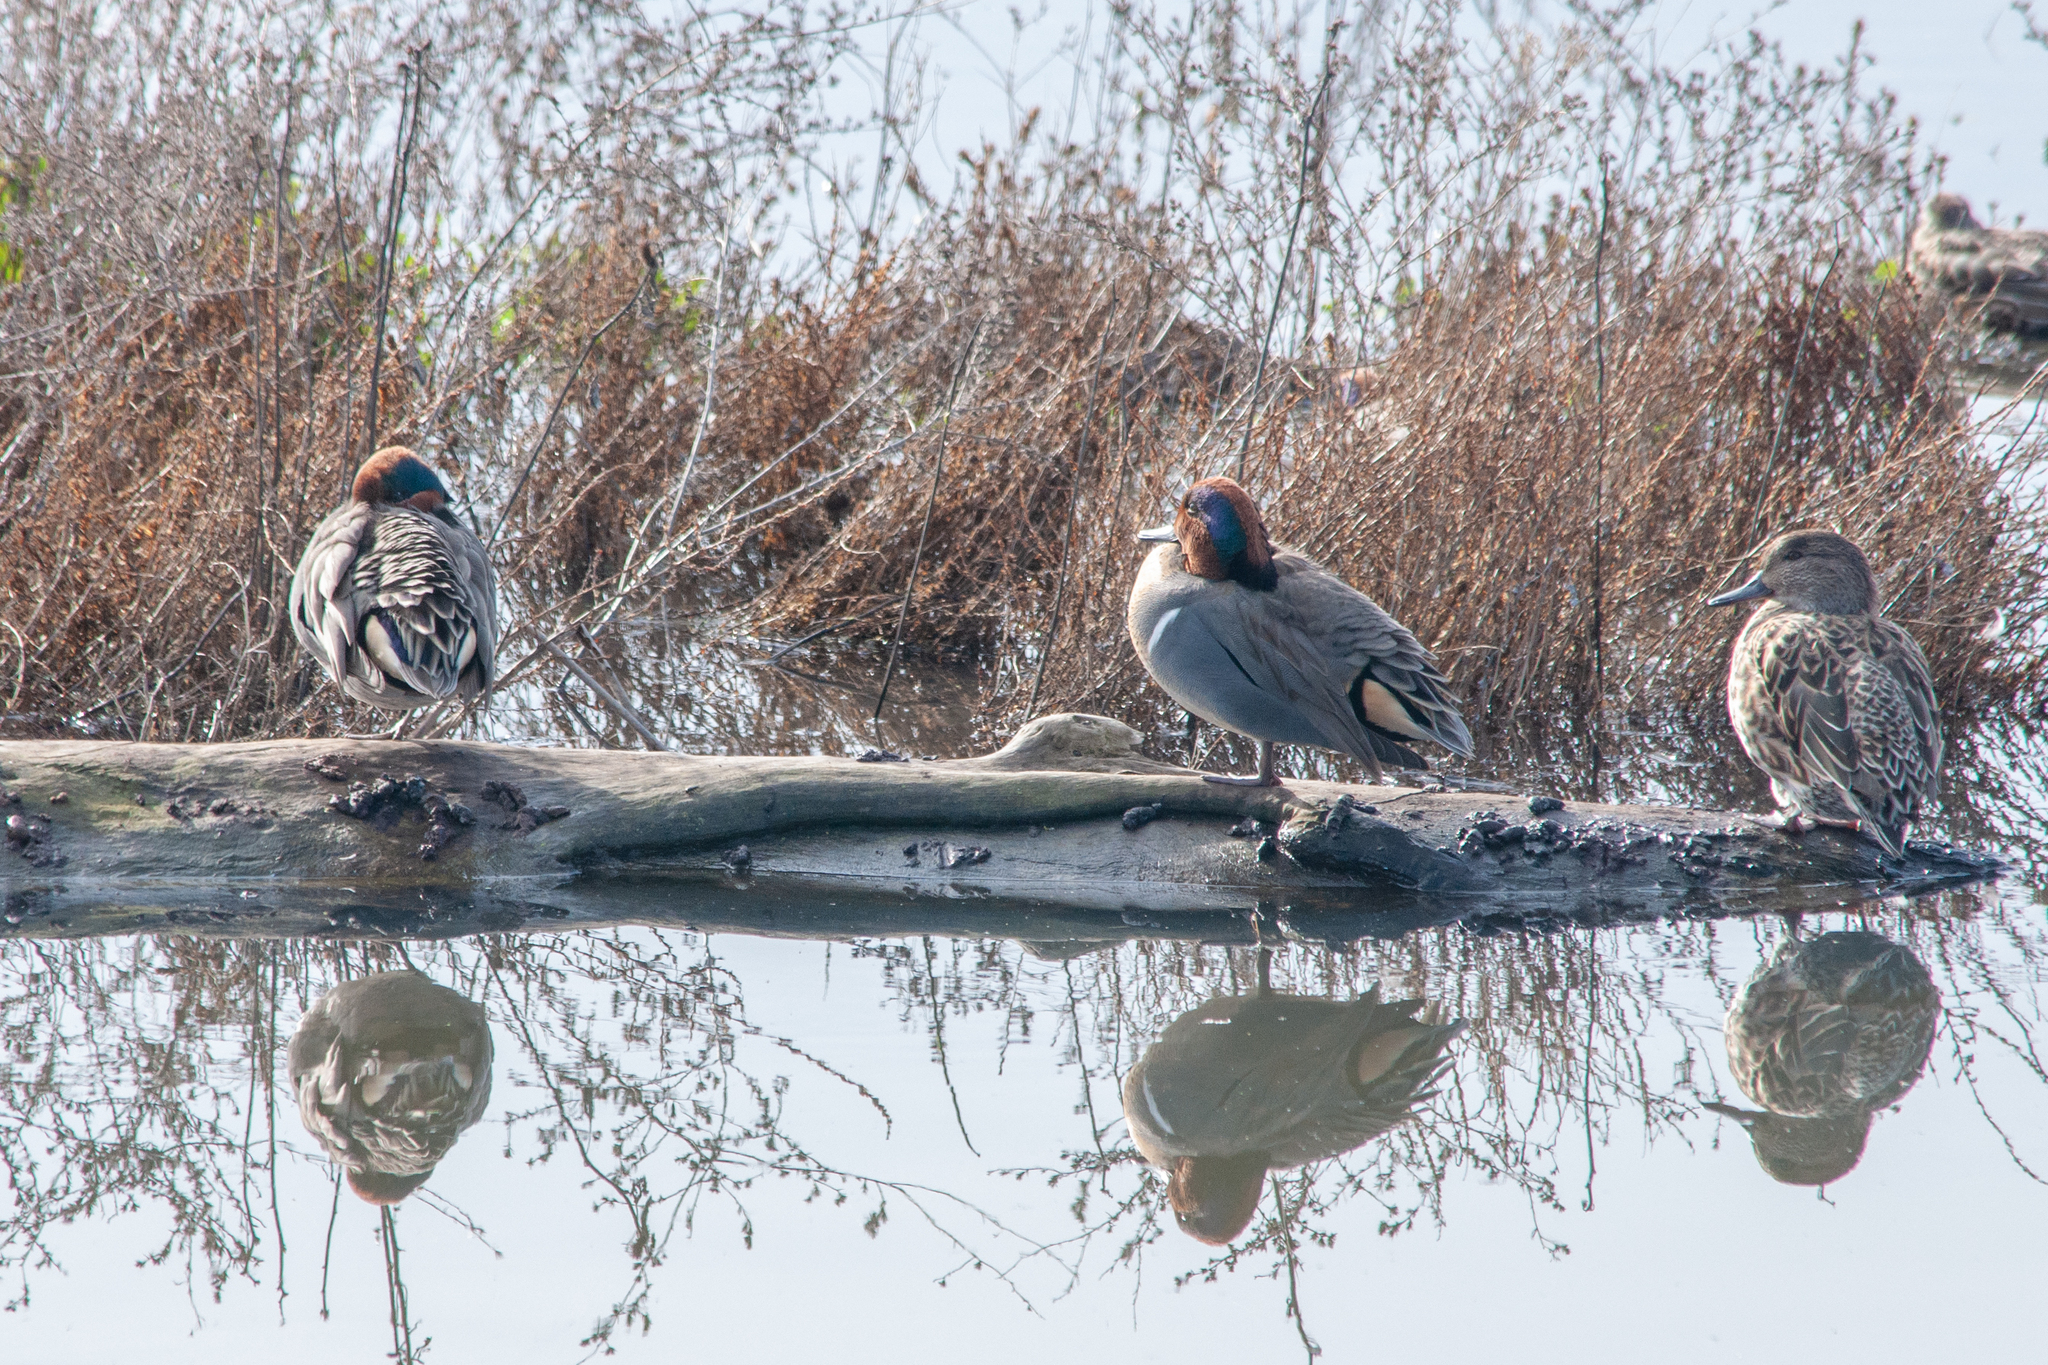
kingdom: Animalia
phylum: Chordata
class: Aves
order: Anseriformes
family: Anatidae
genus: Anas
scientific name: Anas crecca
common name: Eurasian teal
